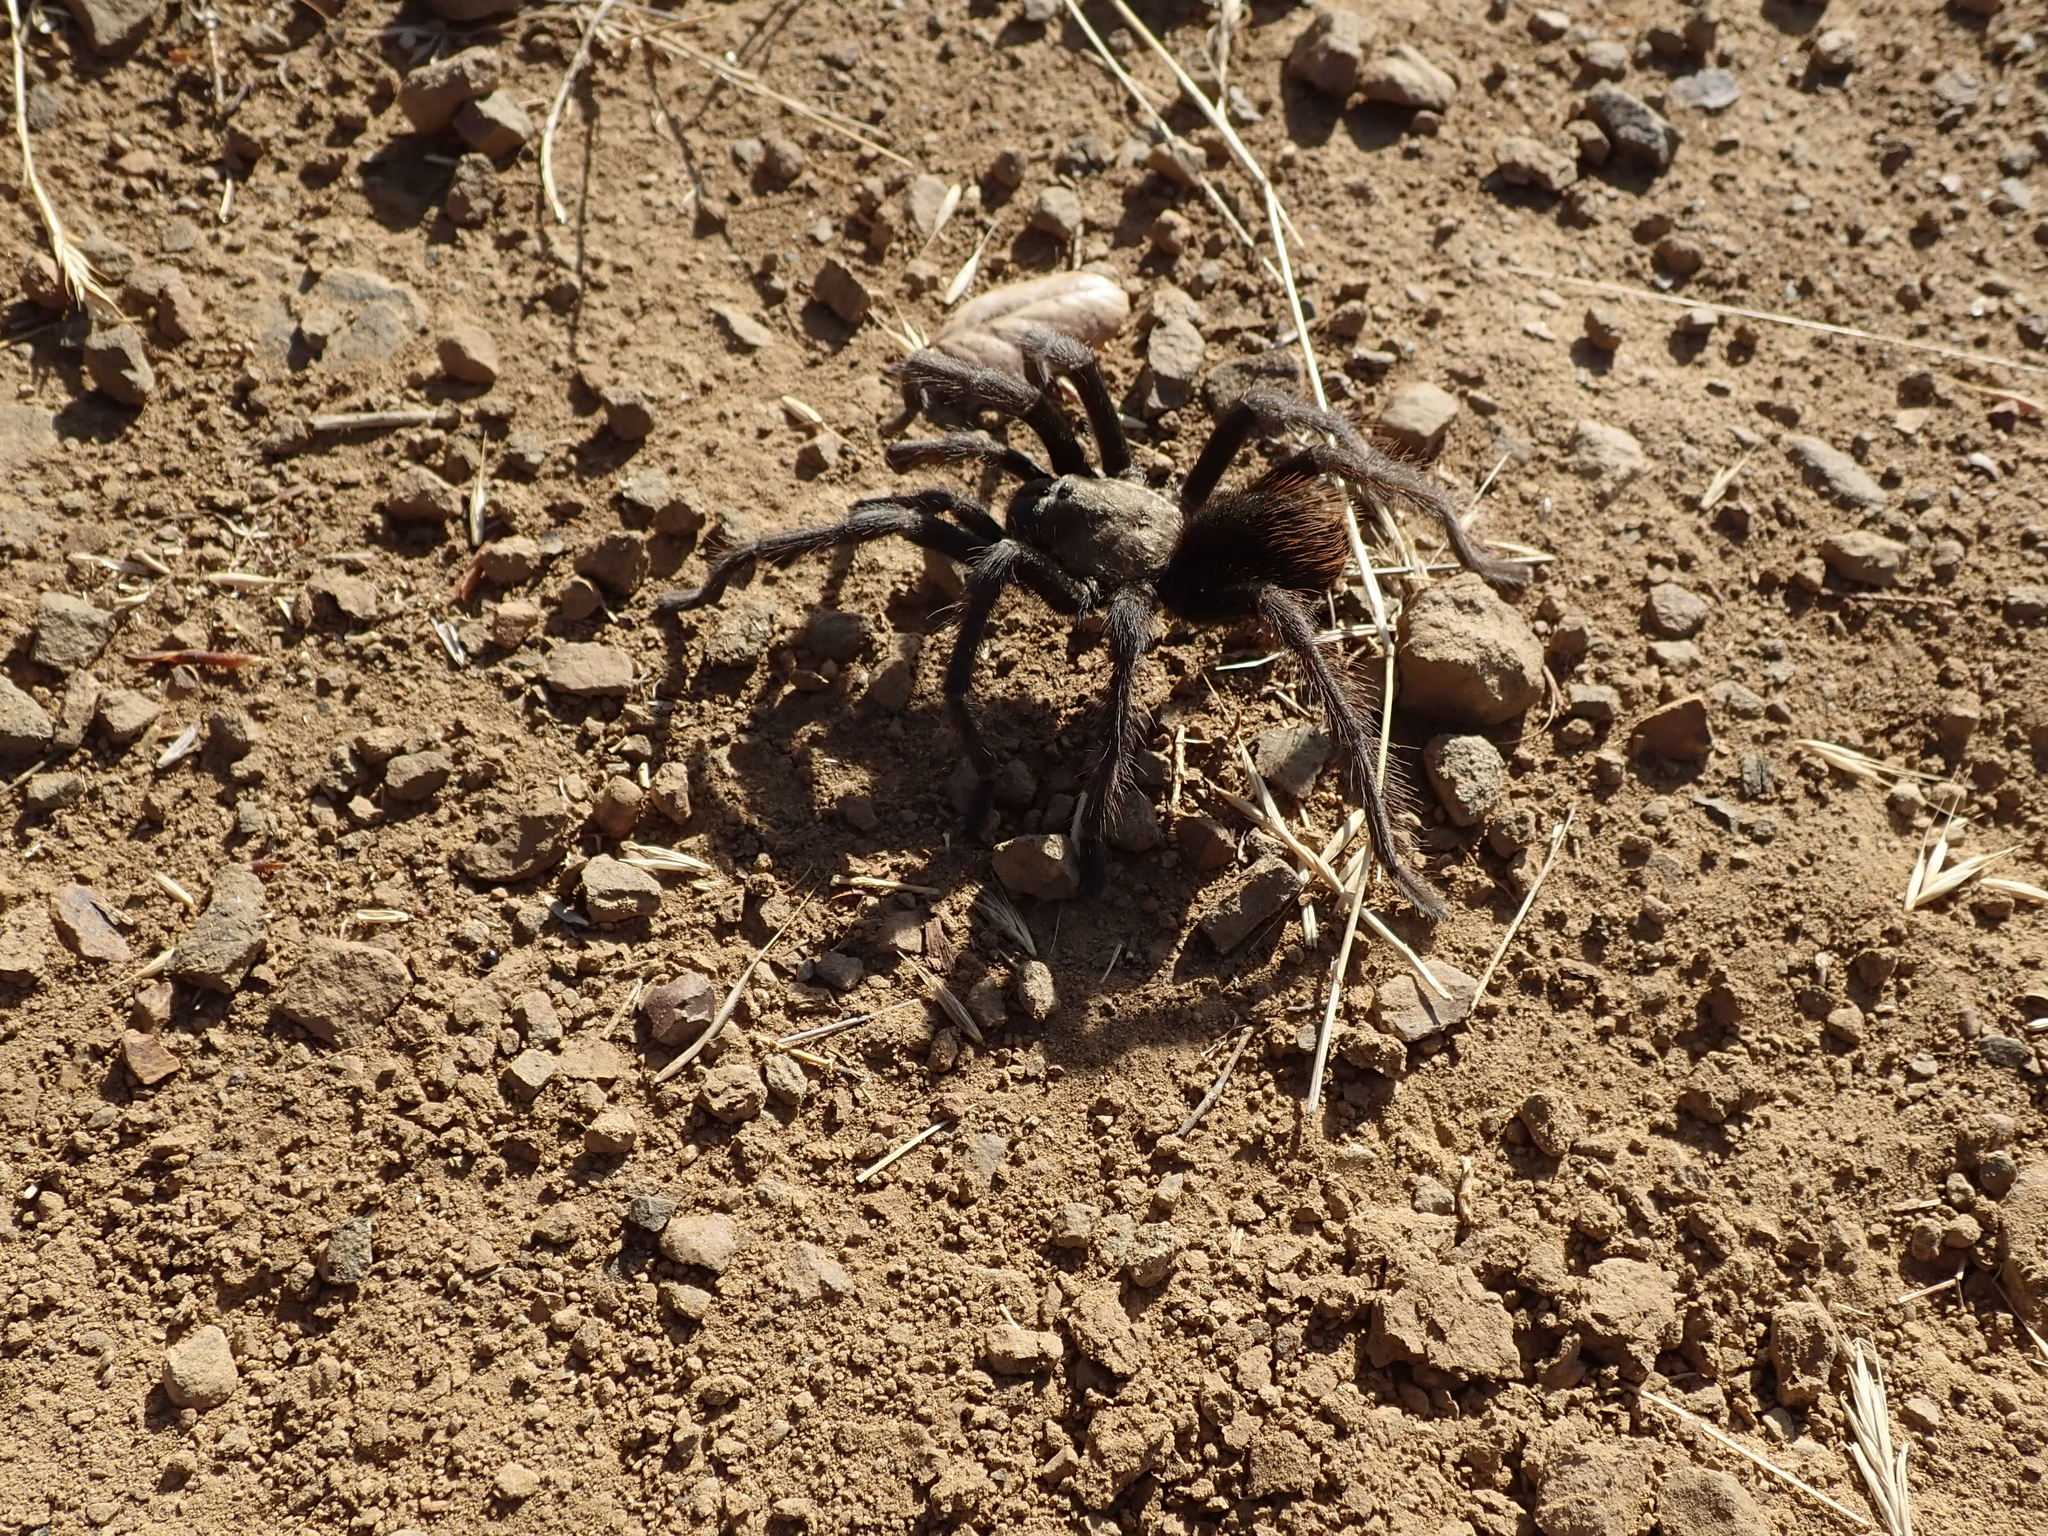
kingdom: Animalia
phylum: Arthropoda
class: Arachnida
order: Araneae
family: Theraphosidae
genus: Aphonopelma
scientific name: Aphonopelma iodius
